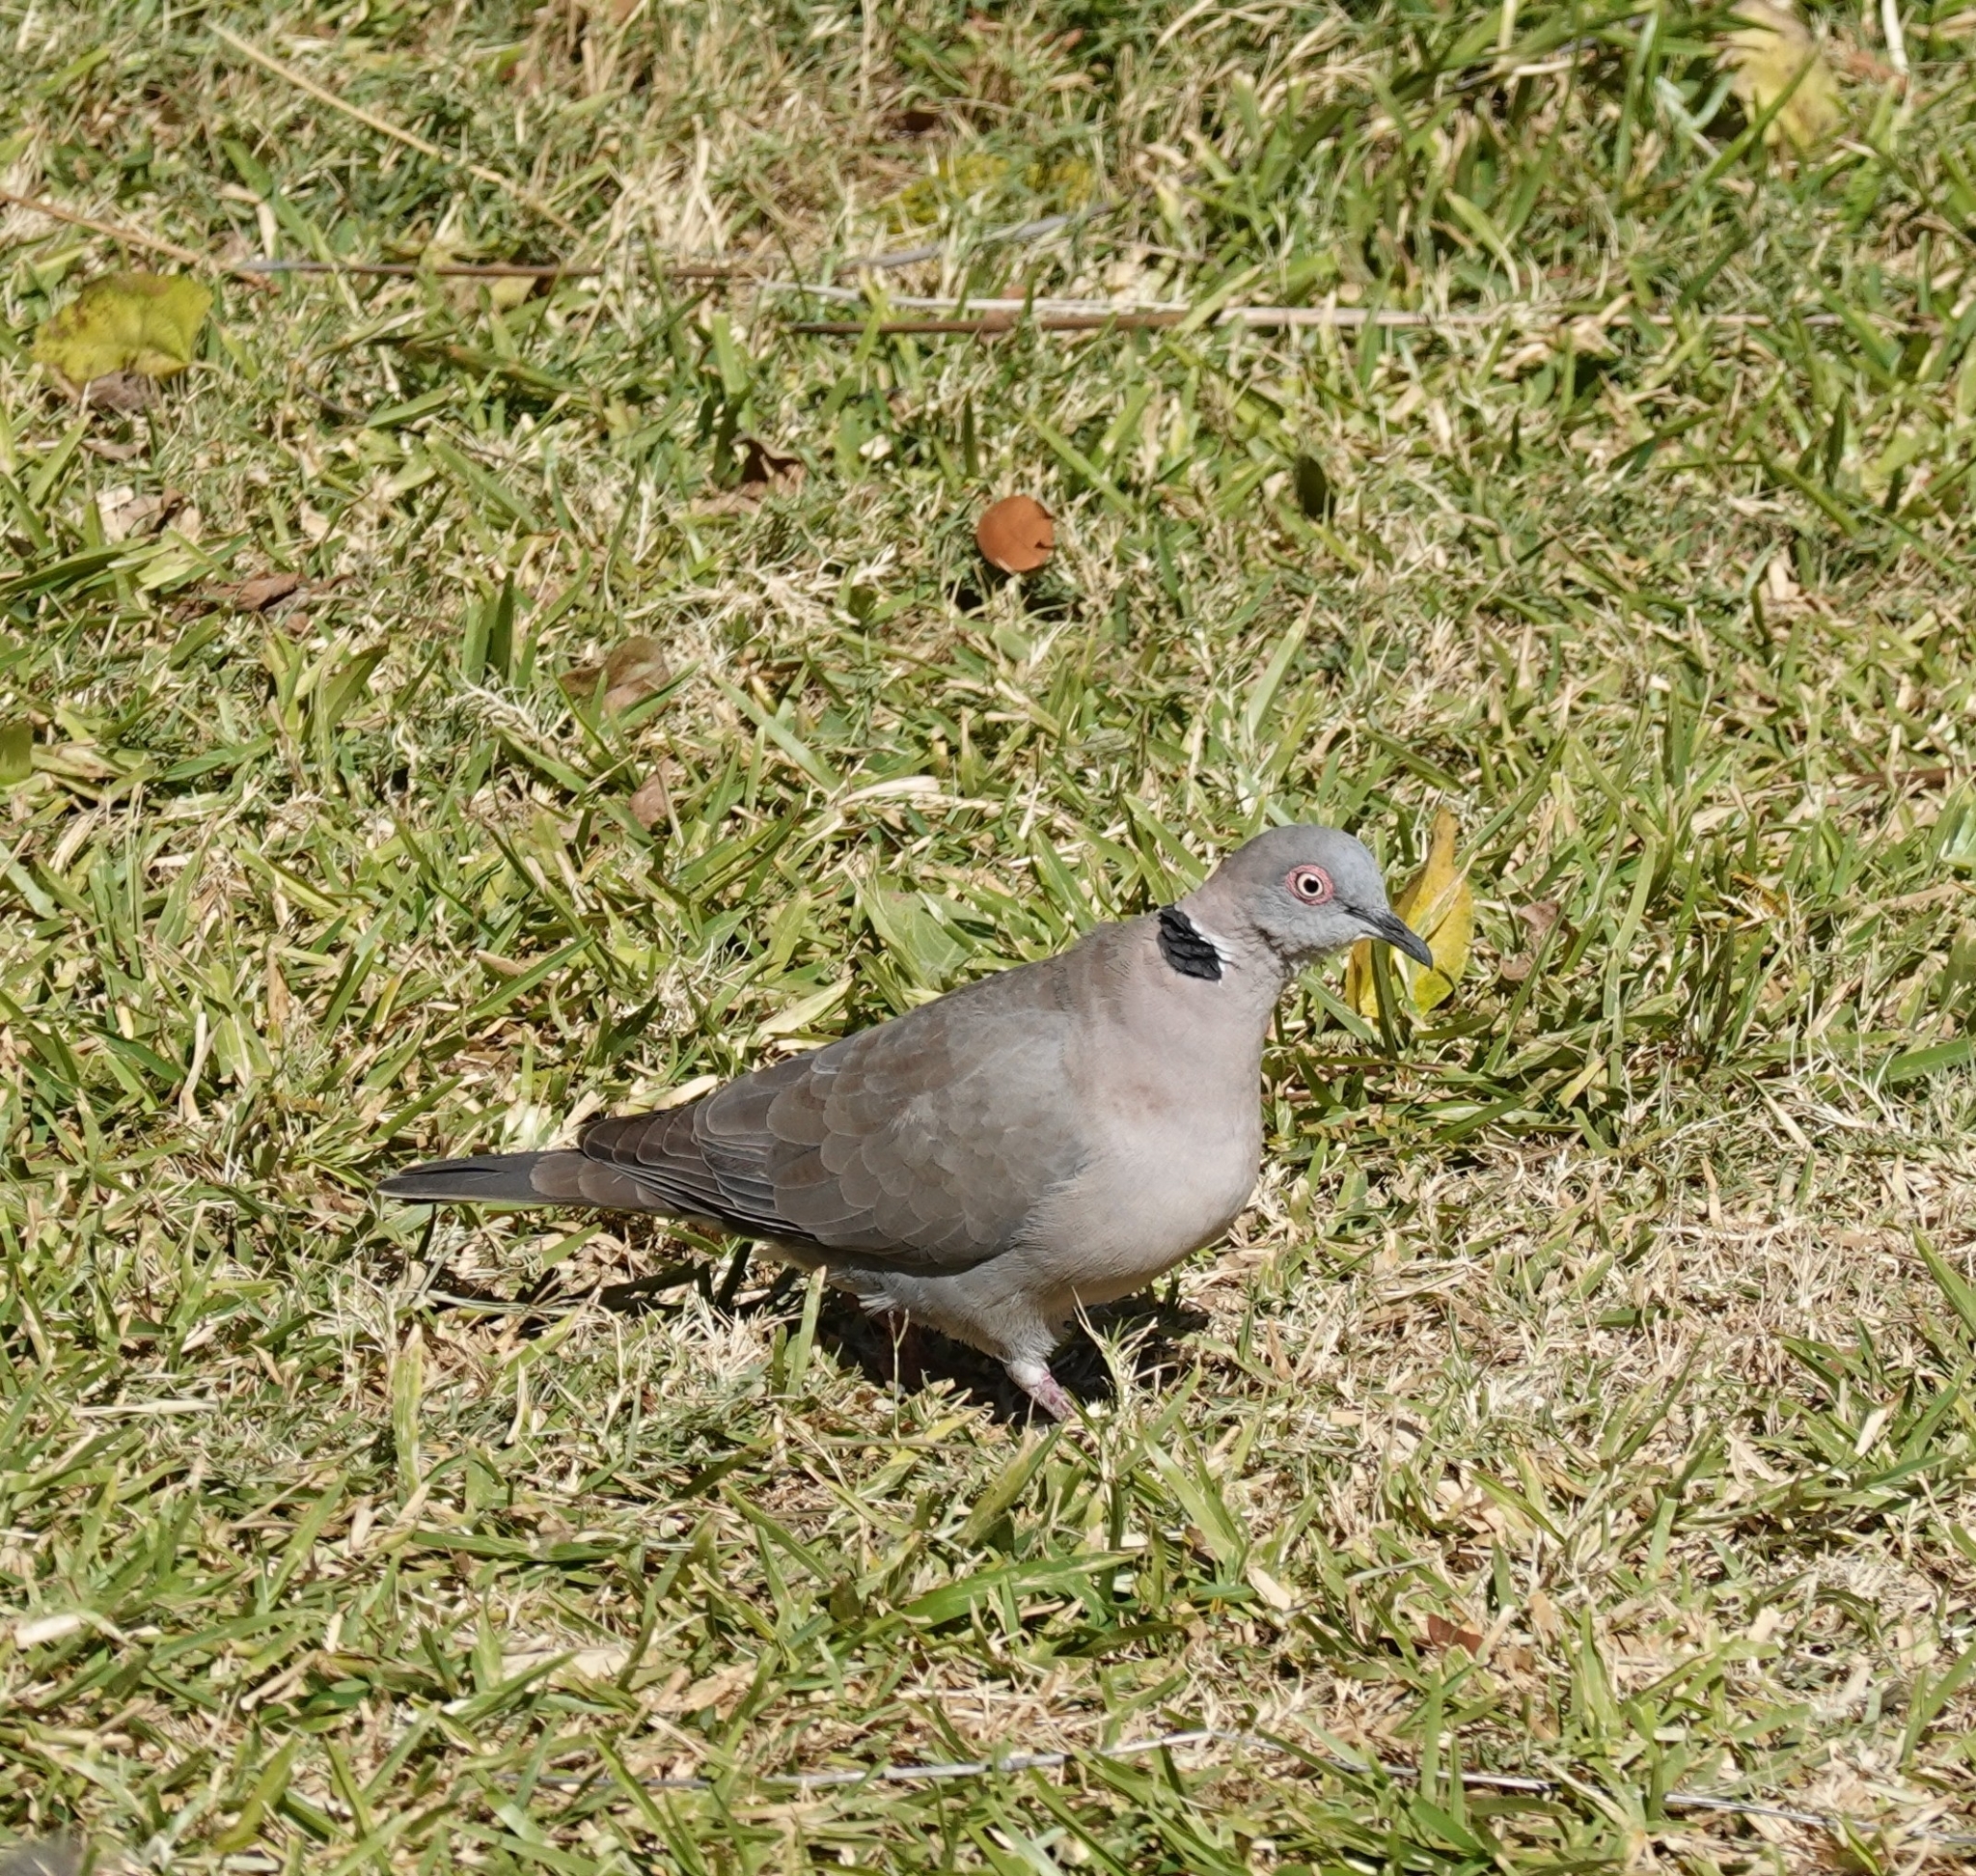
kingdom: Animalia
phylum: Chordata
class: Aves
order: Columbiformes
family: Columbidae
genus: Streptopelia
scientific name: Streptopelia decipiens
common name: Mourning collared dove
